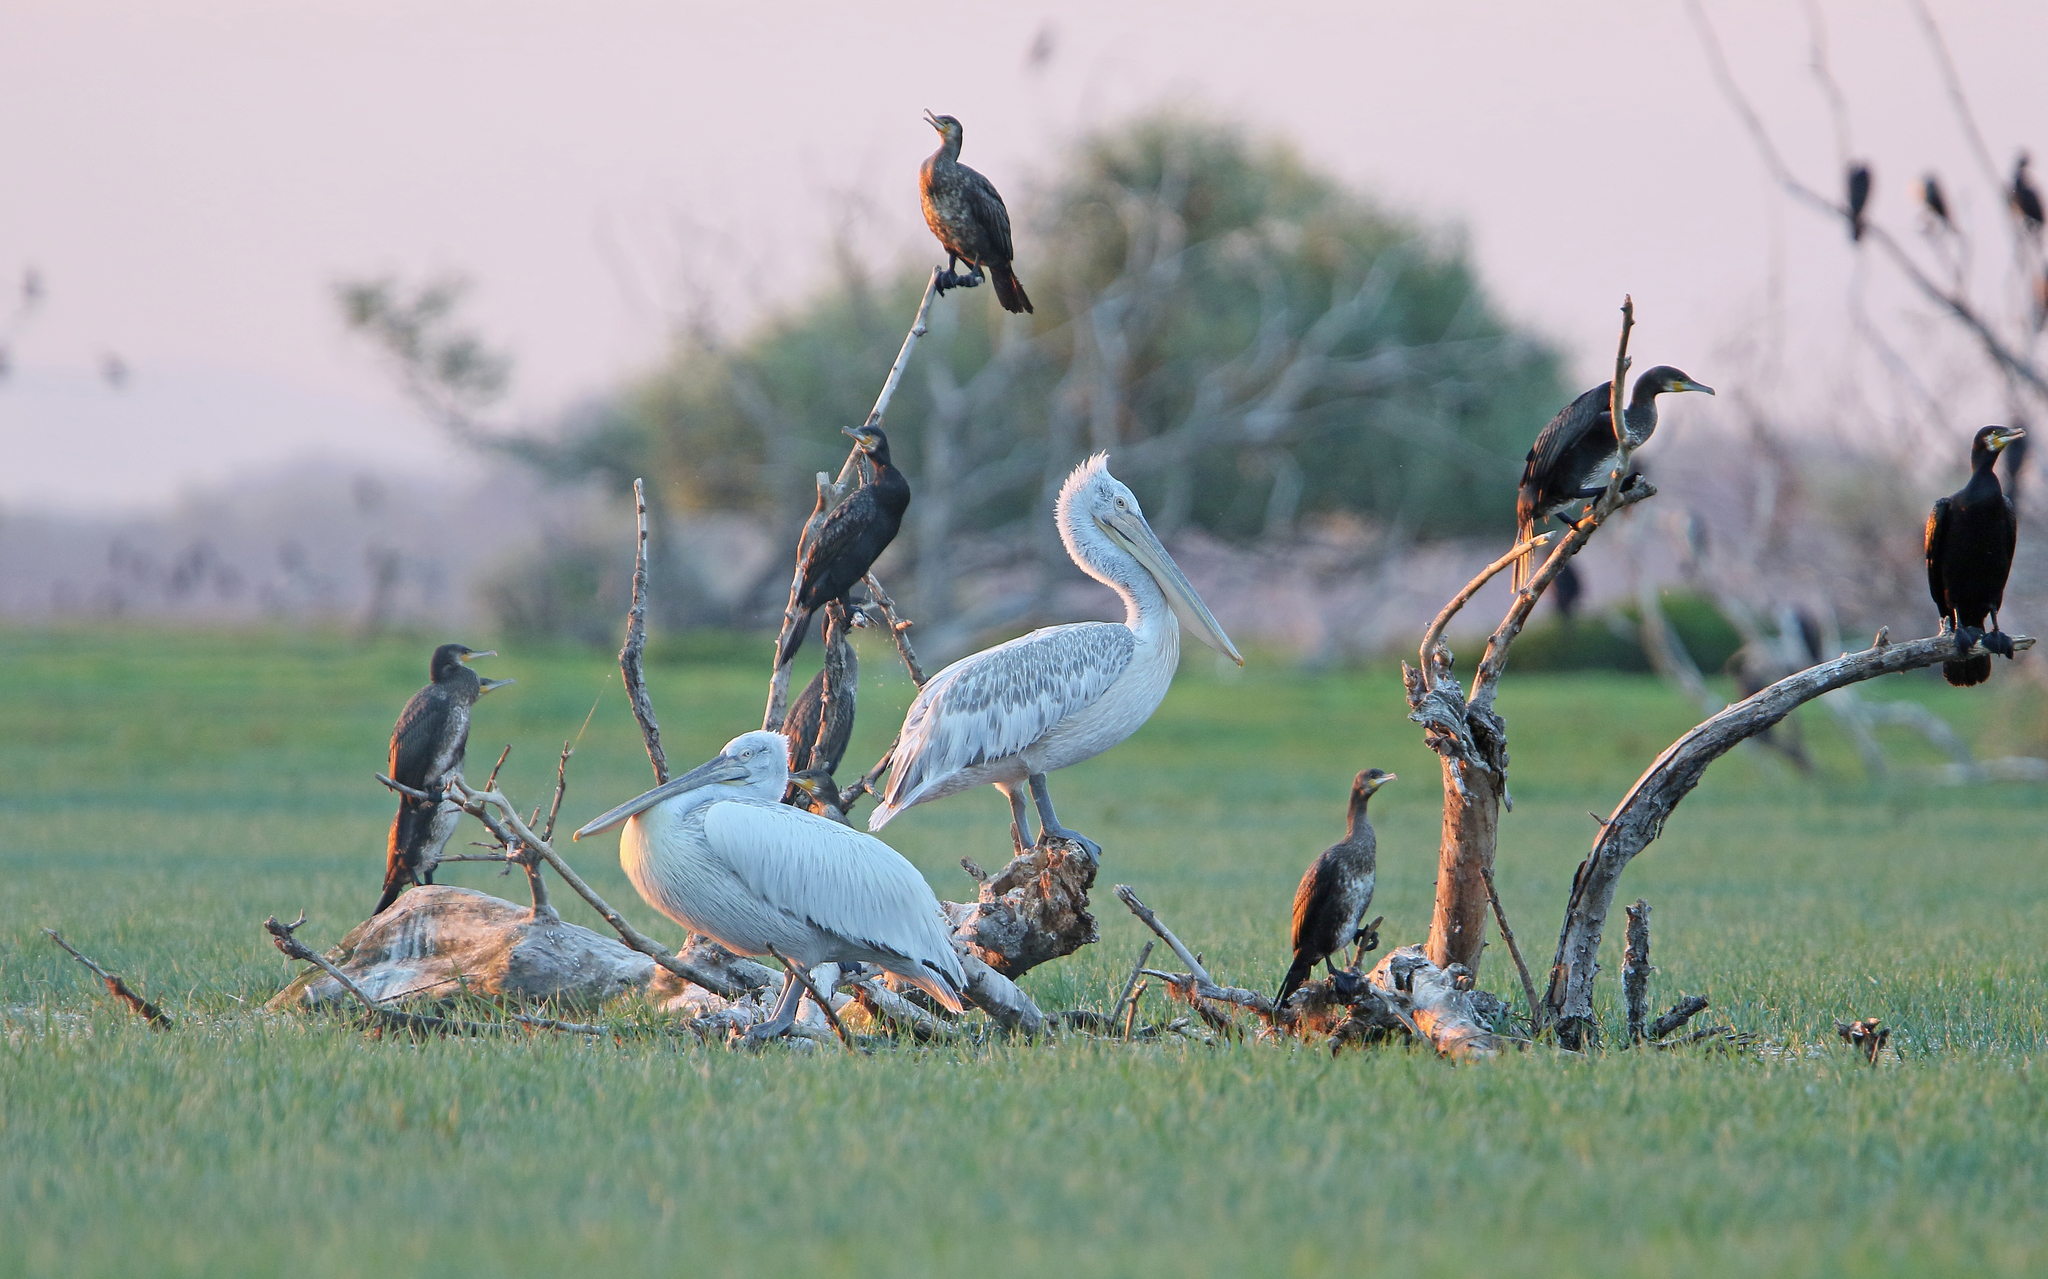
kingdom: Animalia
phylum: Chordata
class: Aves
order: Pelecaniformes
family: Pelecanidae
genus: Pelecanus
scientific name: Pelecanus crispus
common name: Dalmatian pelican
